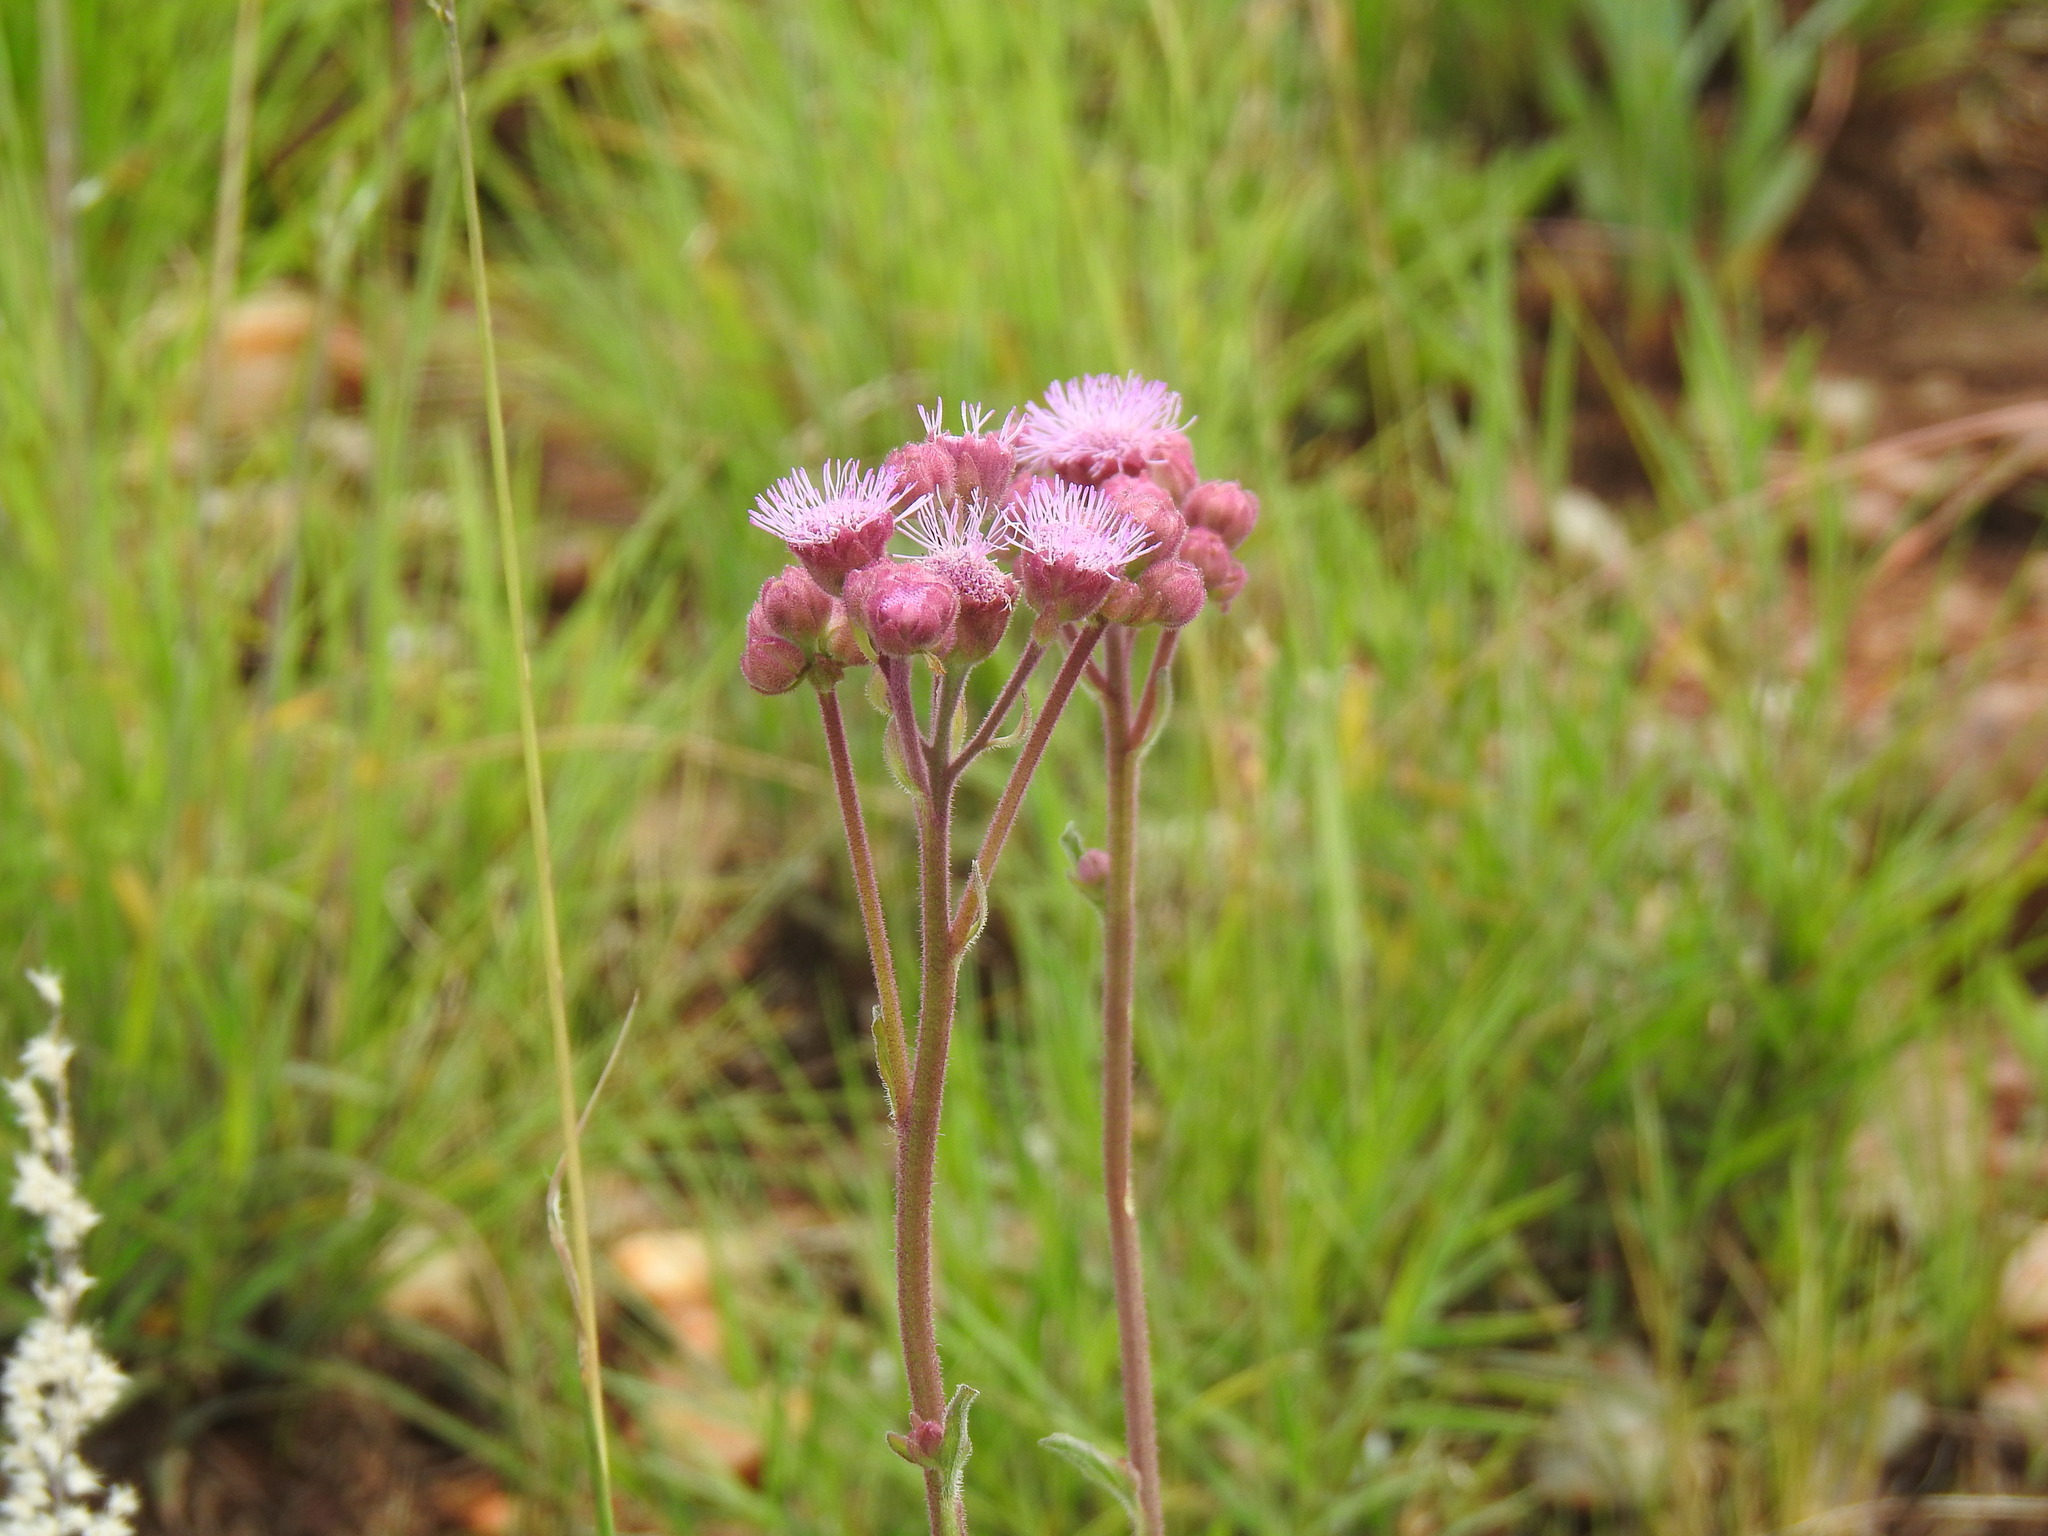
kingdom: Plantae
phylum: Tracheophyta
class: Magnoliopsida
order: Asterales
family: Asteraceae
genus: Campuloclinium
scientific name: Campuloclinium macrocephalum
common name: Pompomweed
